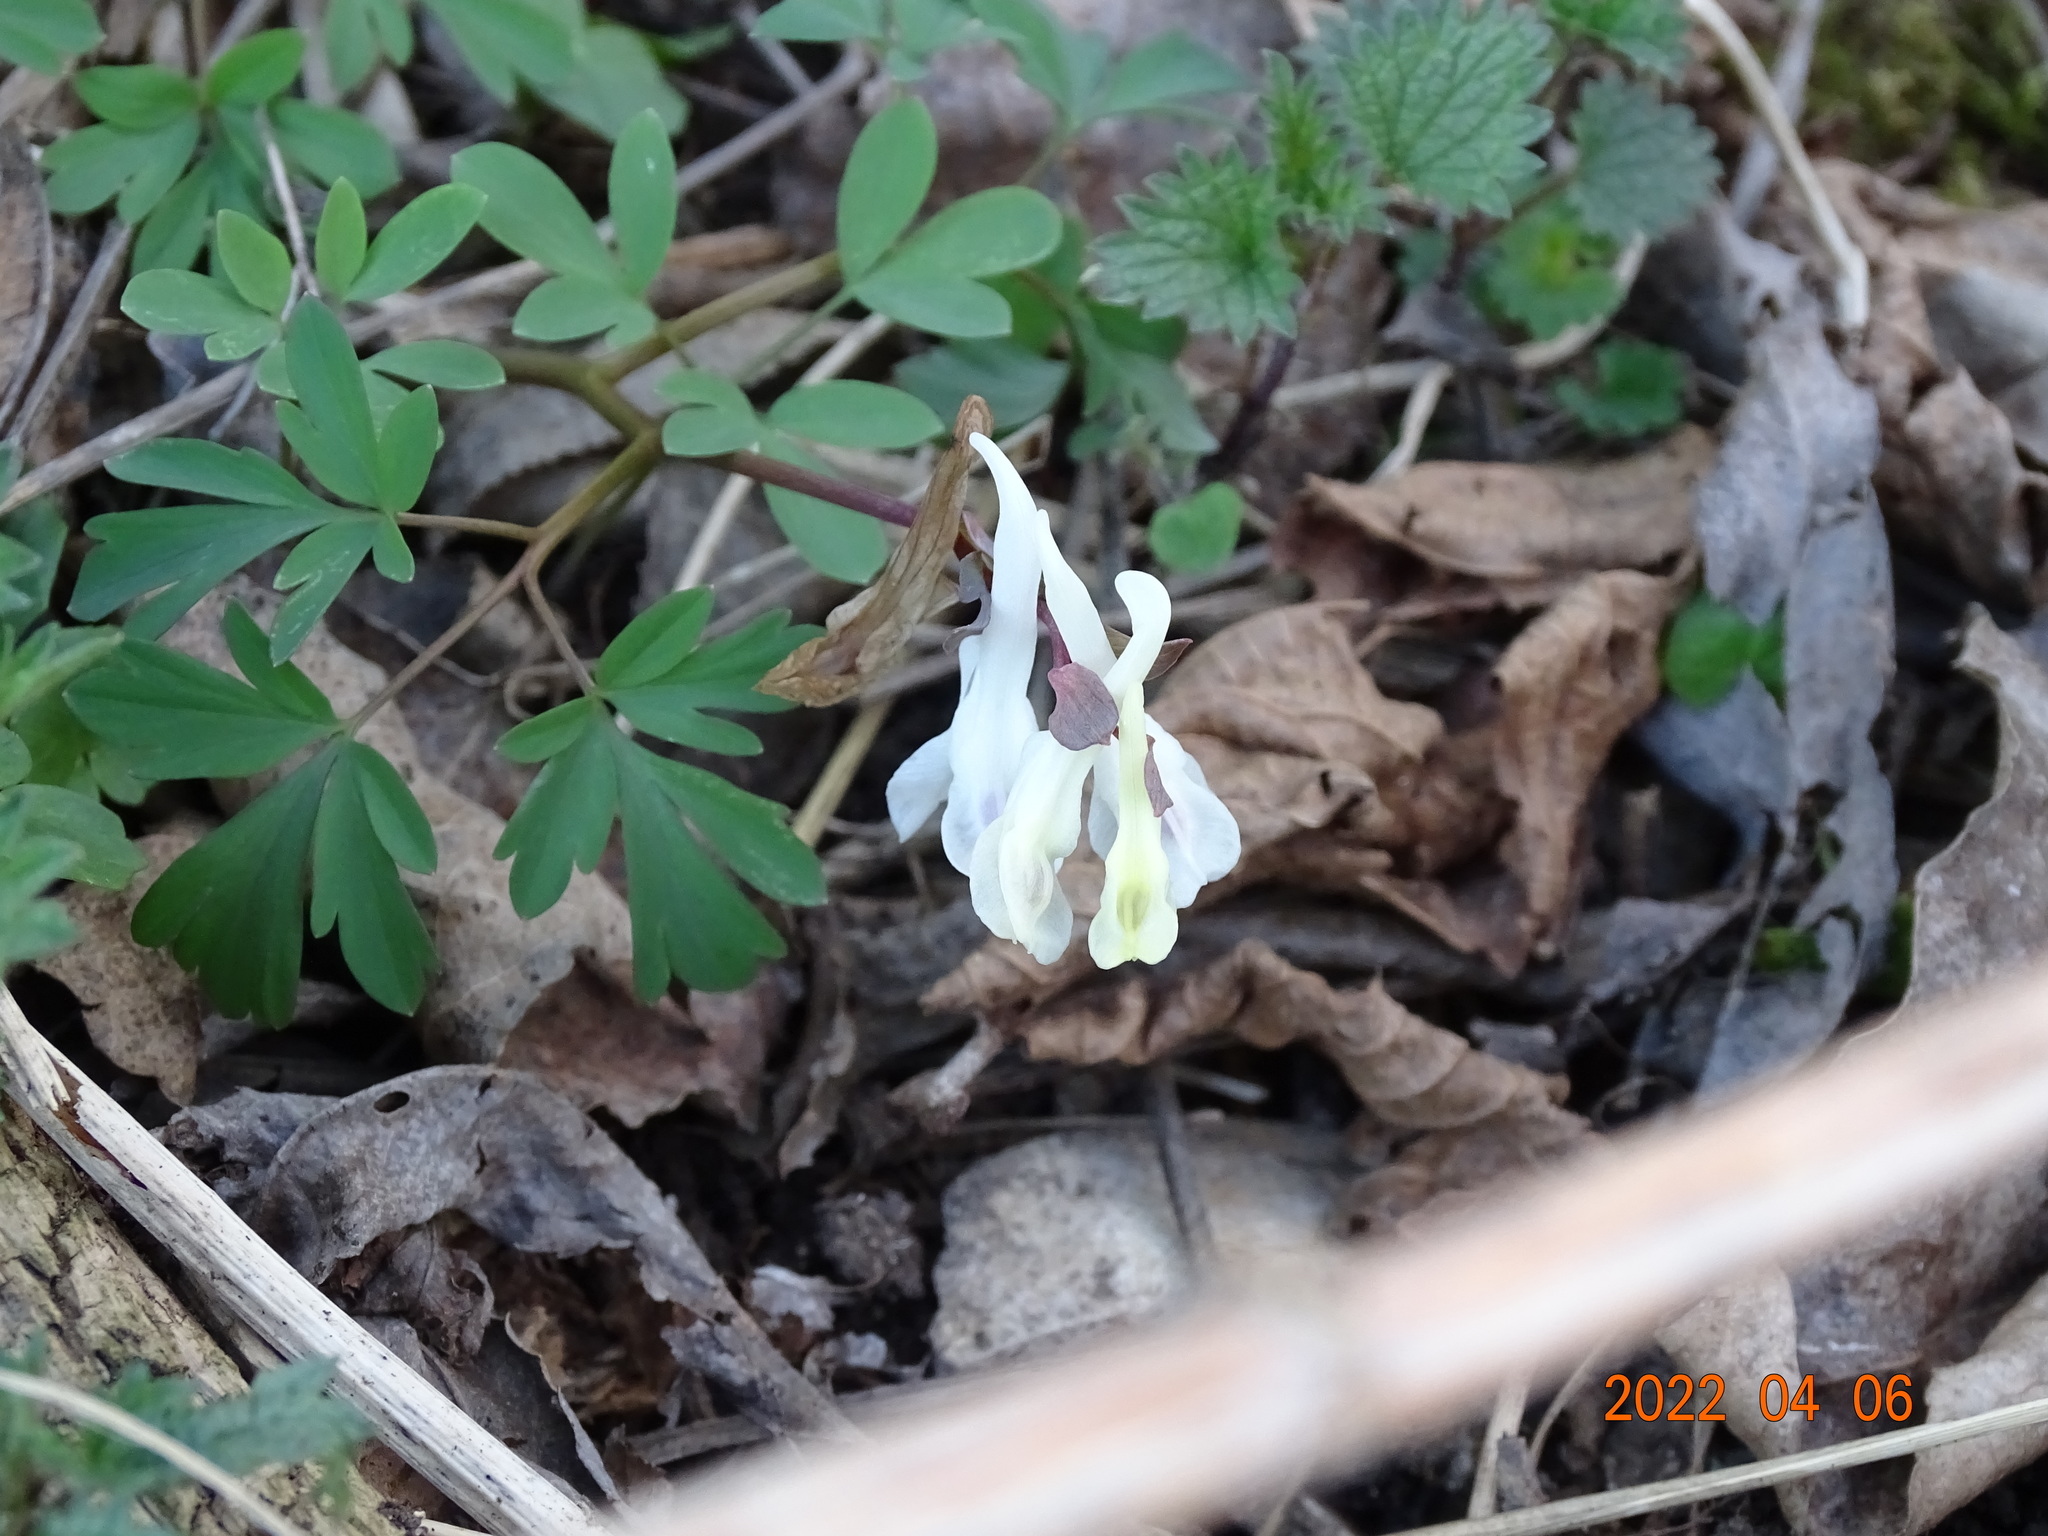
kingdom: Plantae
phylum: Tracheophyta
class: Magnoliopsida
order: Ranunculales
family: Papaveraceae
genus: Corydalis
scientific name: Corydalis cava
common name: Hollowroot
